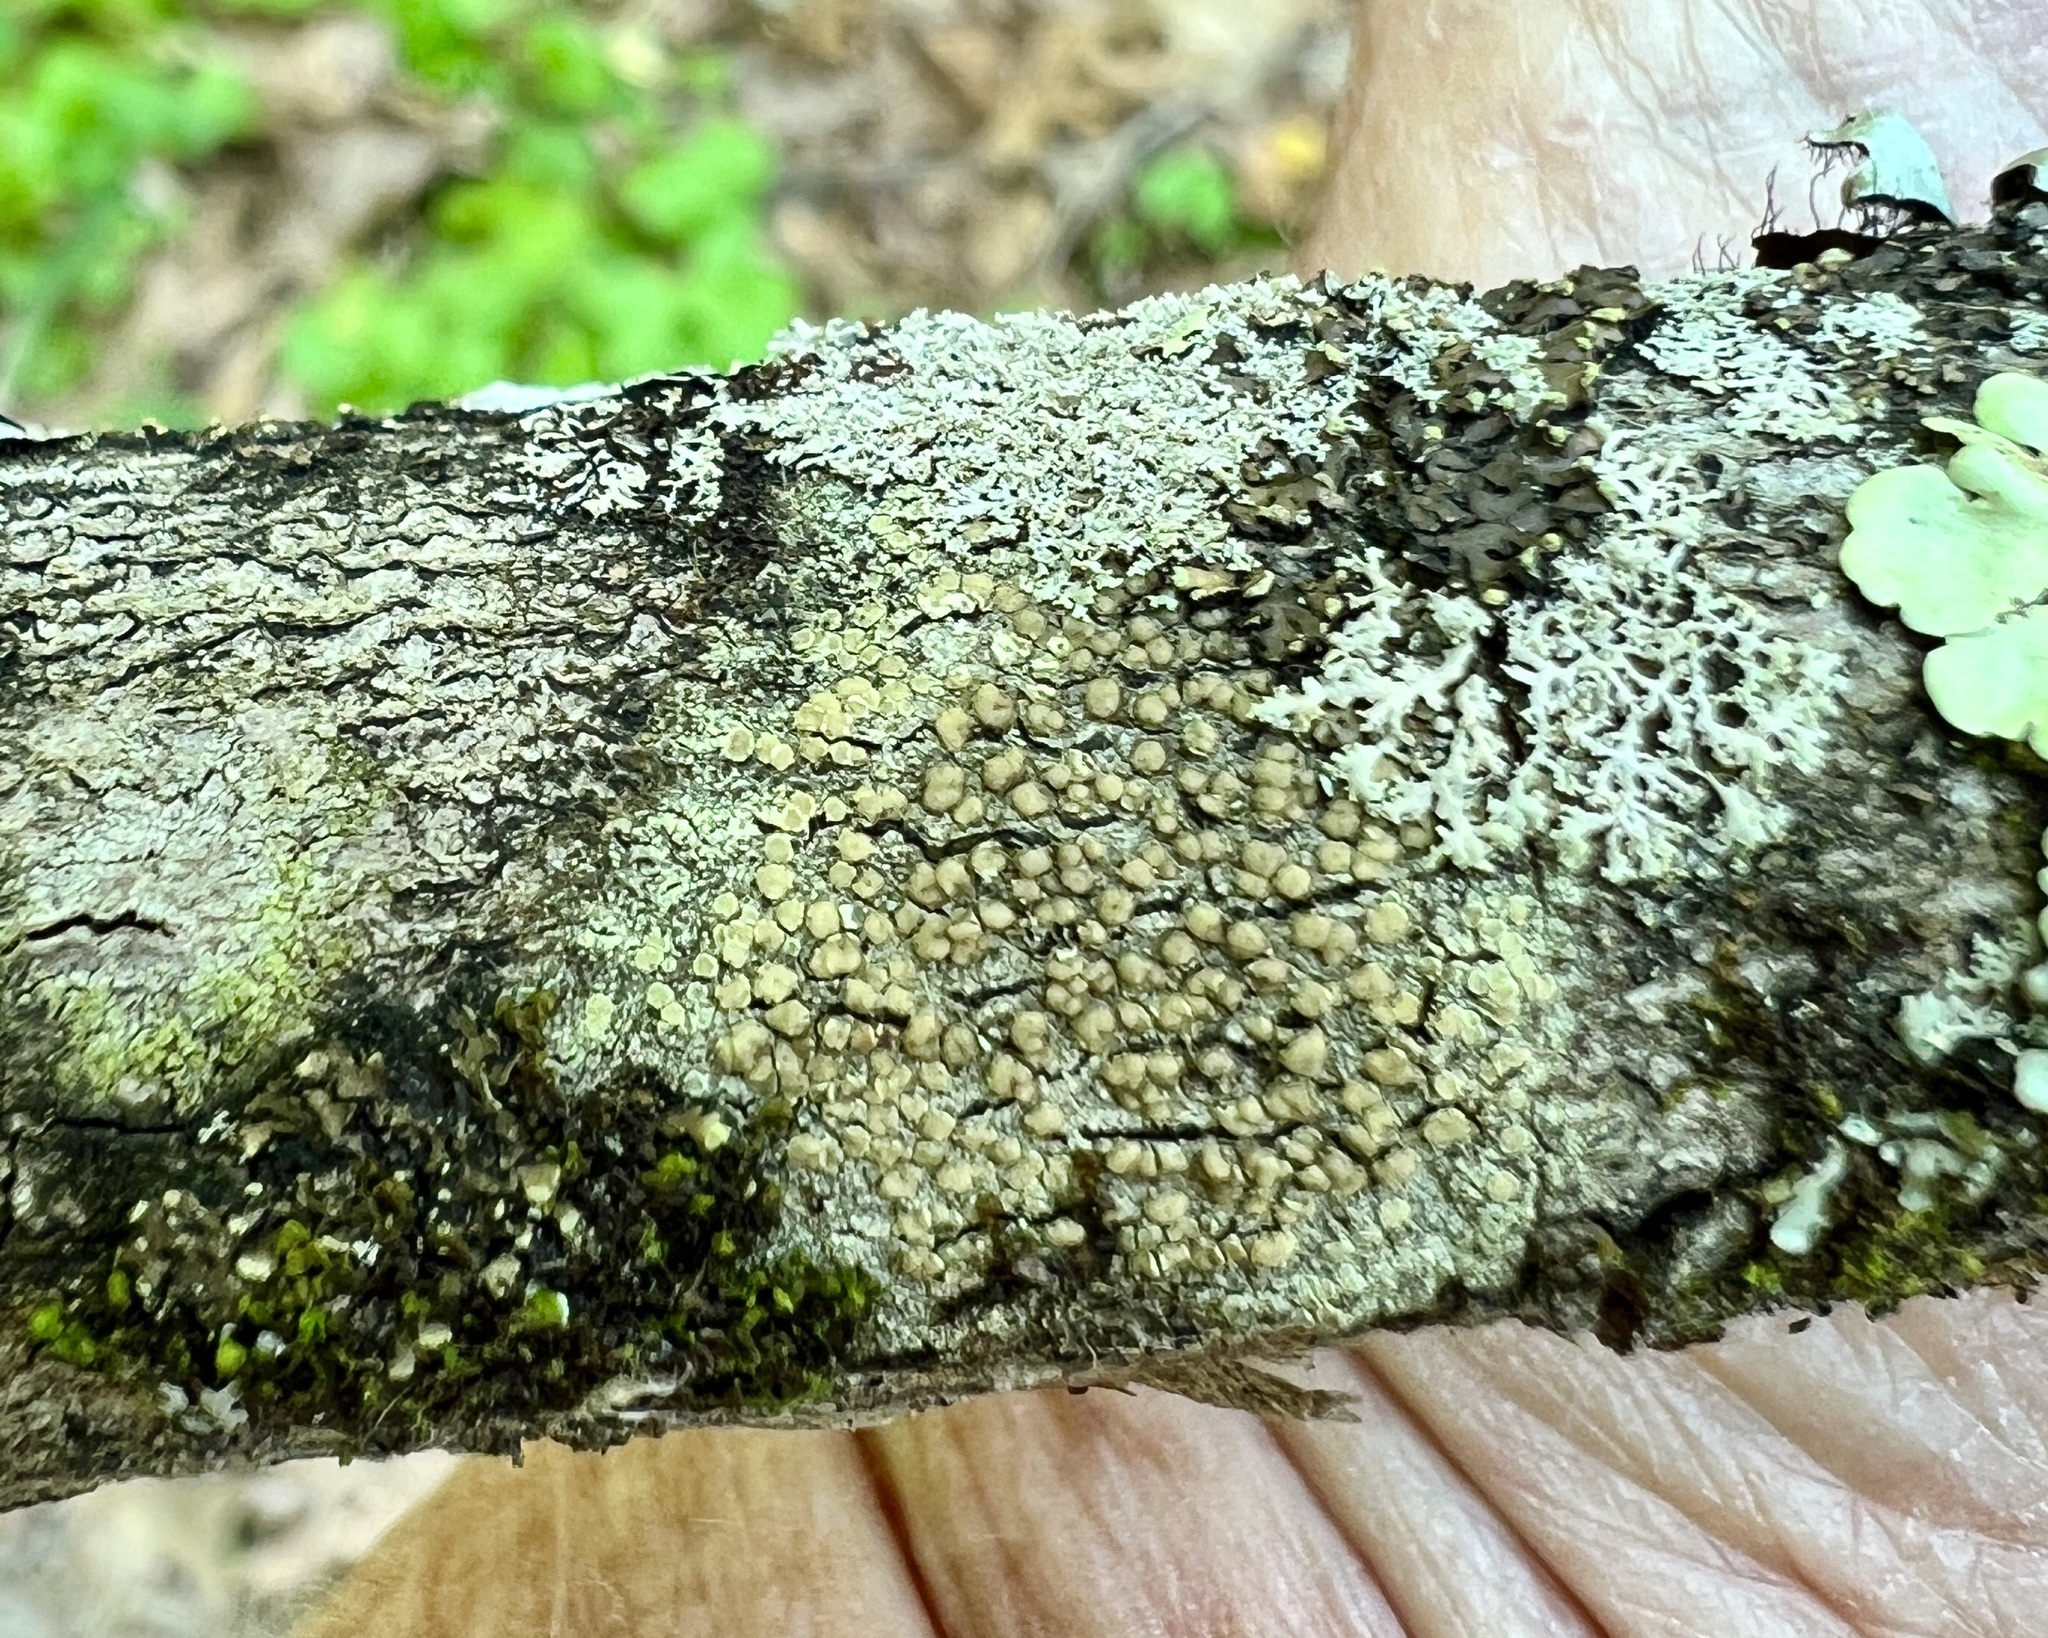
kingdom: Fungi
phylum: Ascomycota
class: Lecanoromycetes
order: Lecanorales
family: Lecanoraceae
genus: Lecanora
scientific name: Lecanora strobilina
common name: Mealy rim-lichen
